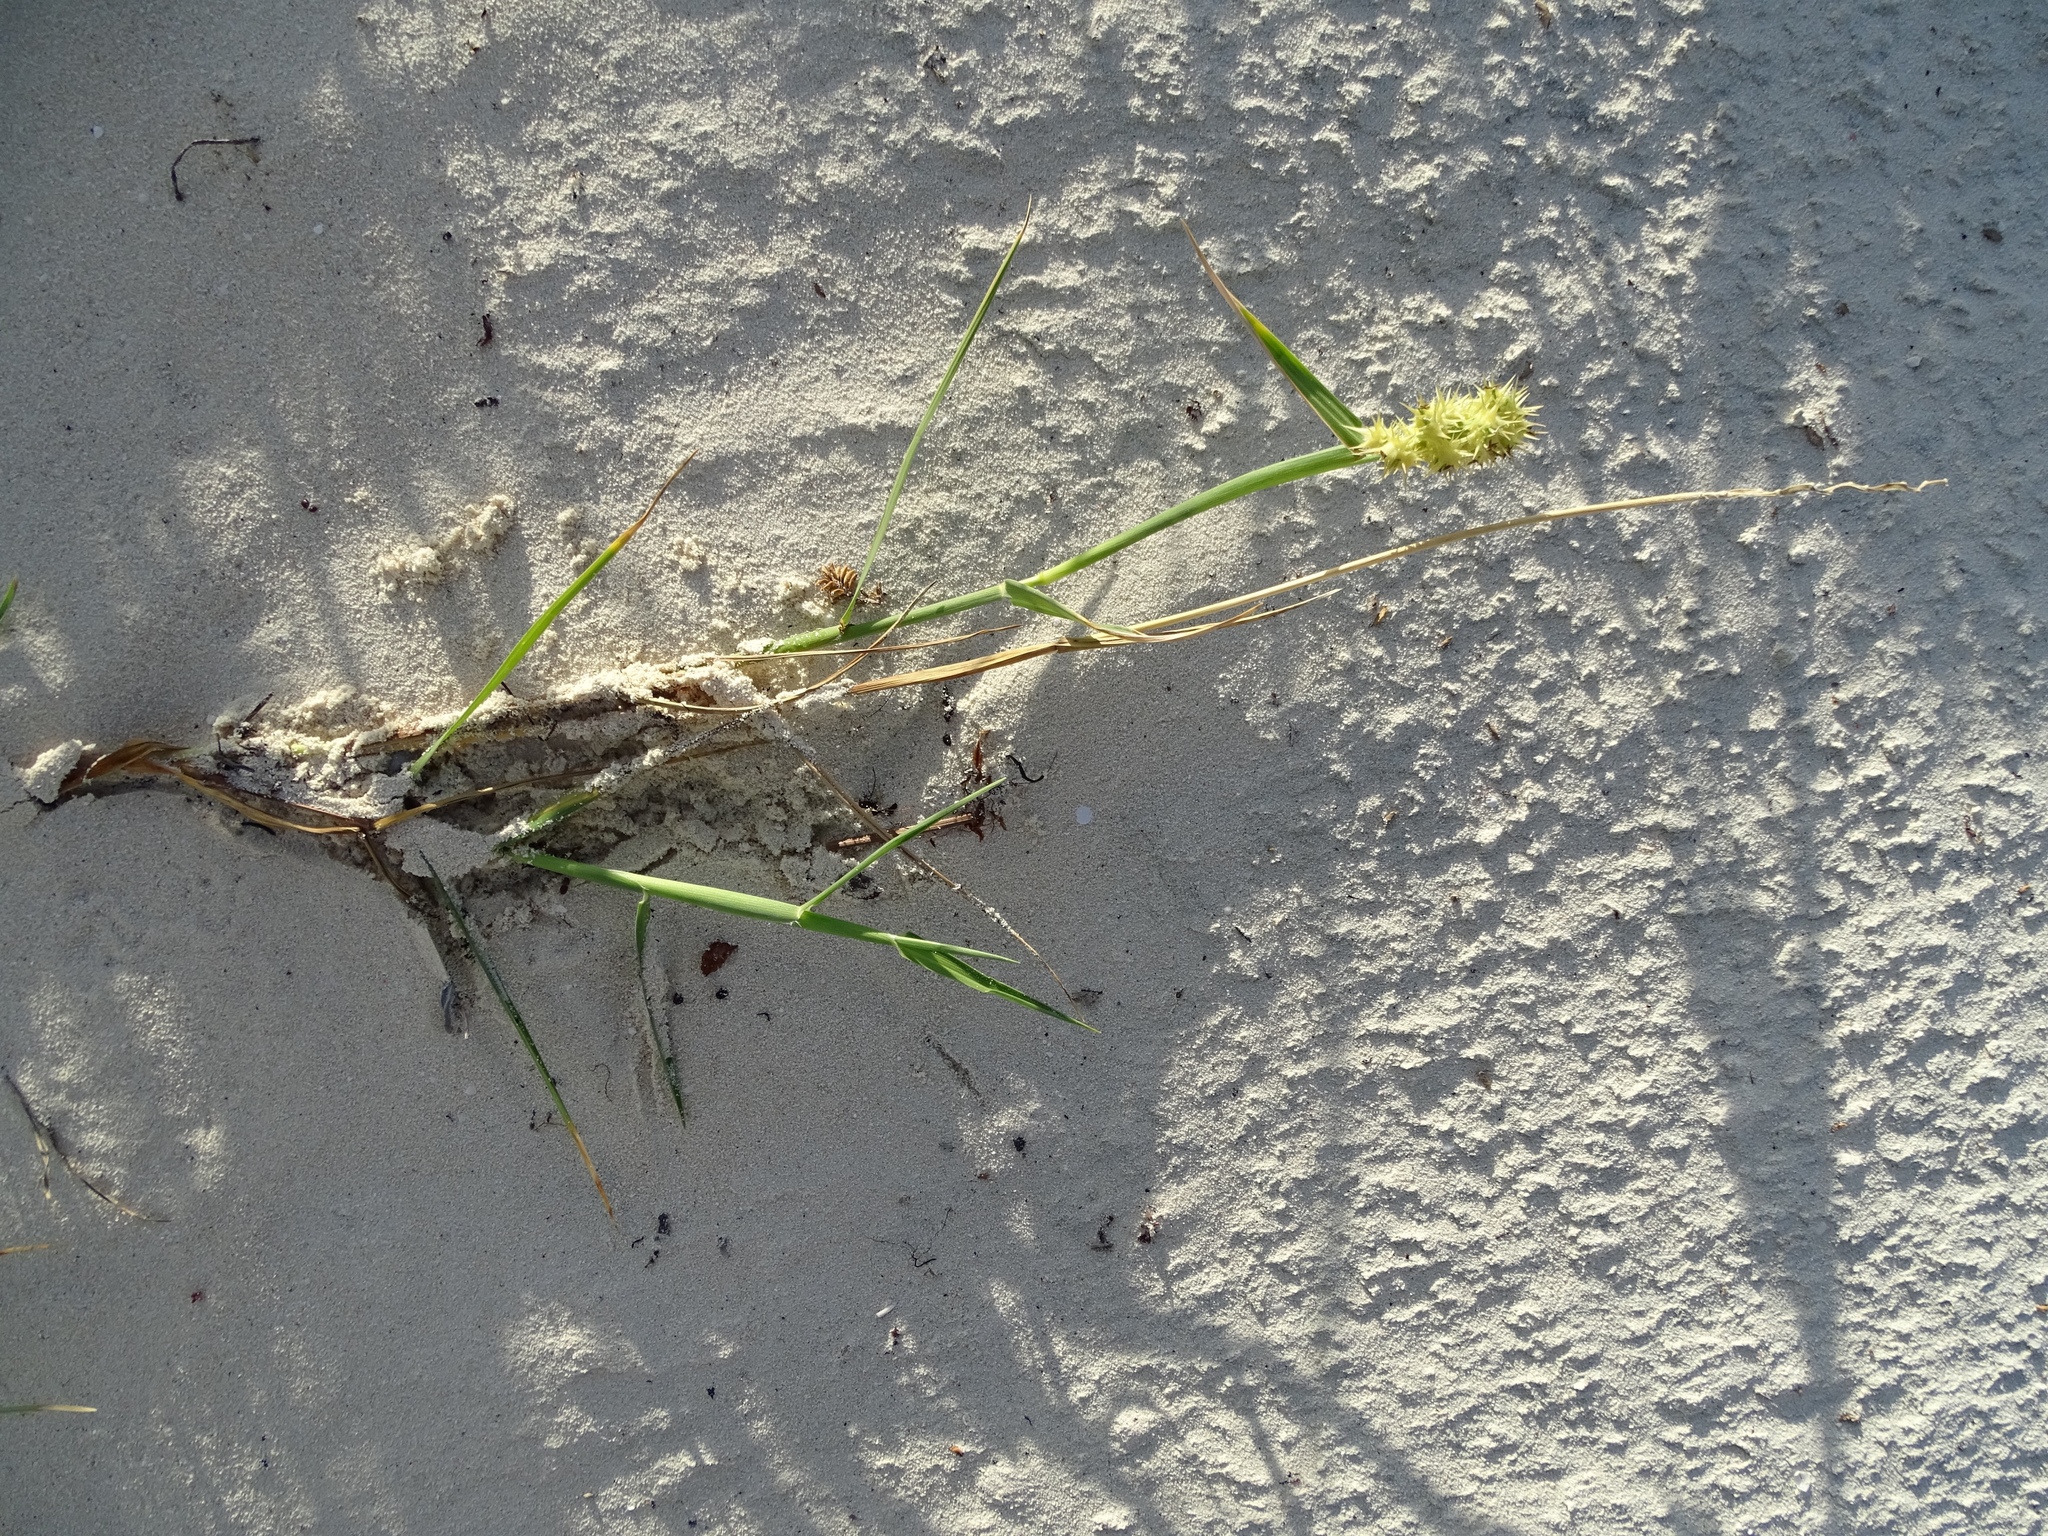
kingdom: Plantae
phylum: Tracheophyta
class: Liliopsida
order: Poales
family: Poaceae
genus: Cenchrus
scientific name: Cenchrus echinatus
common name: Southern sandbur
